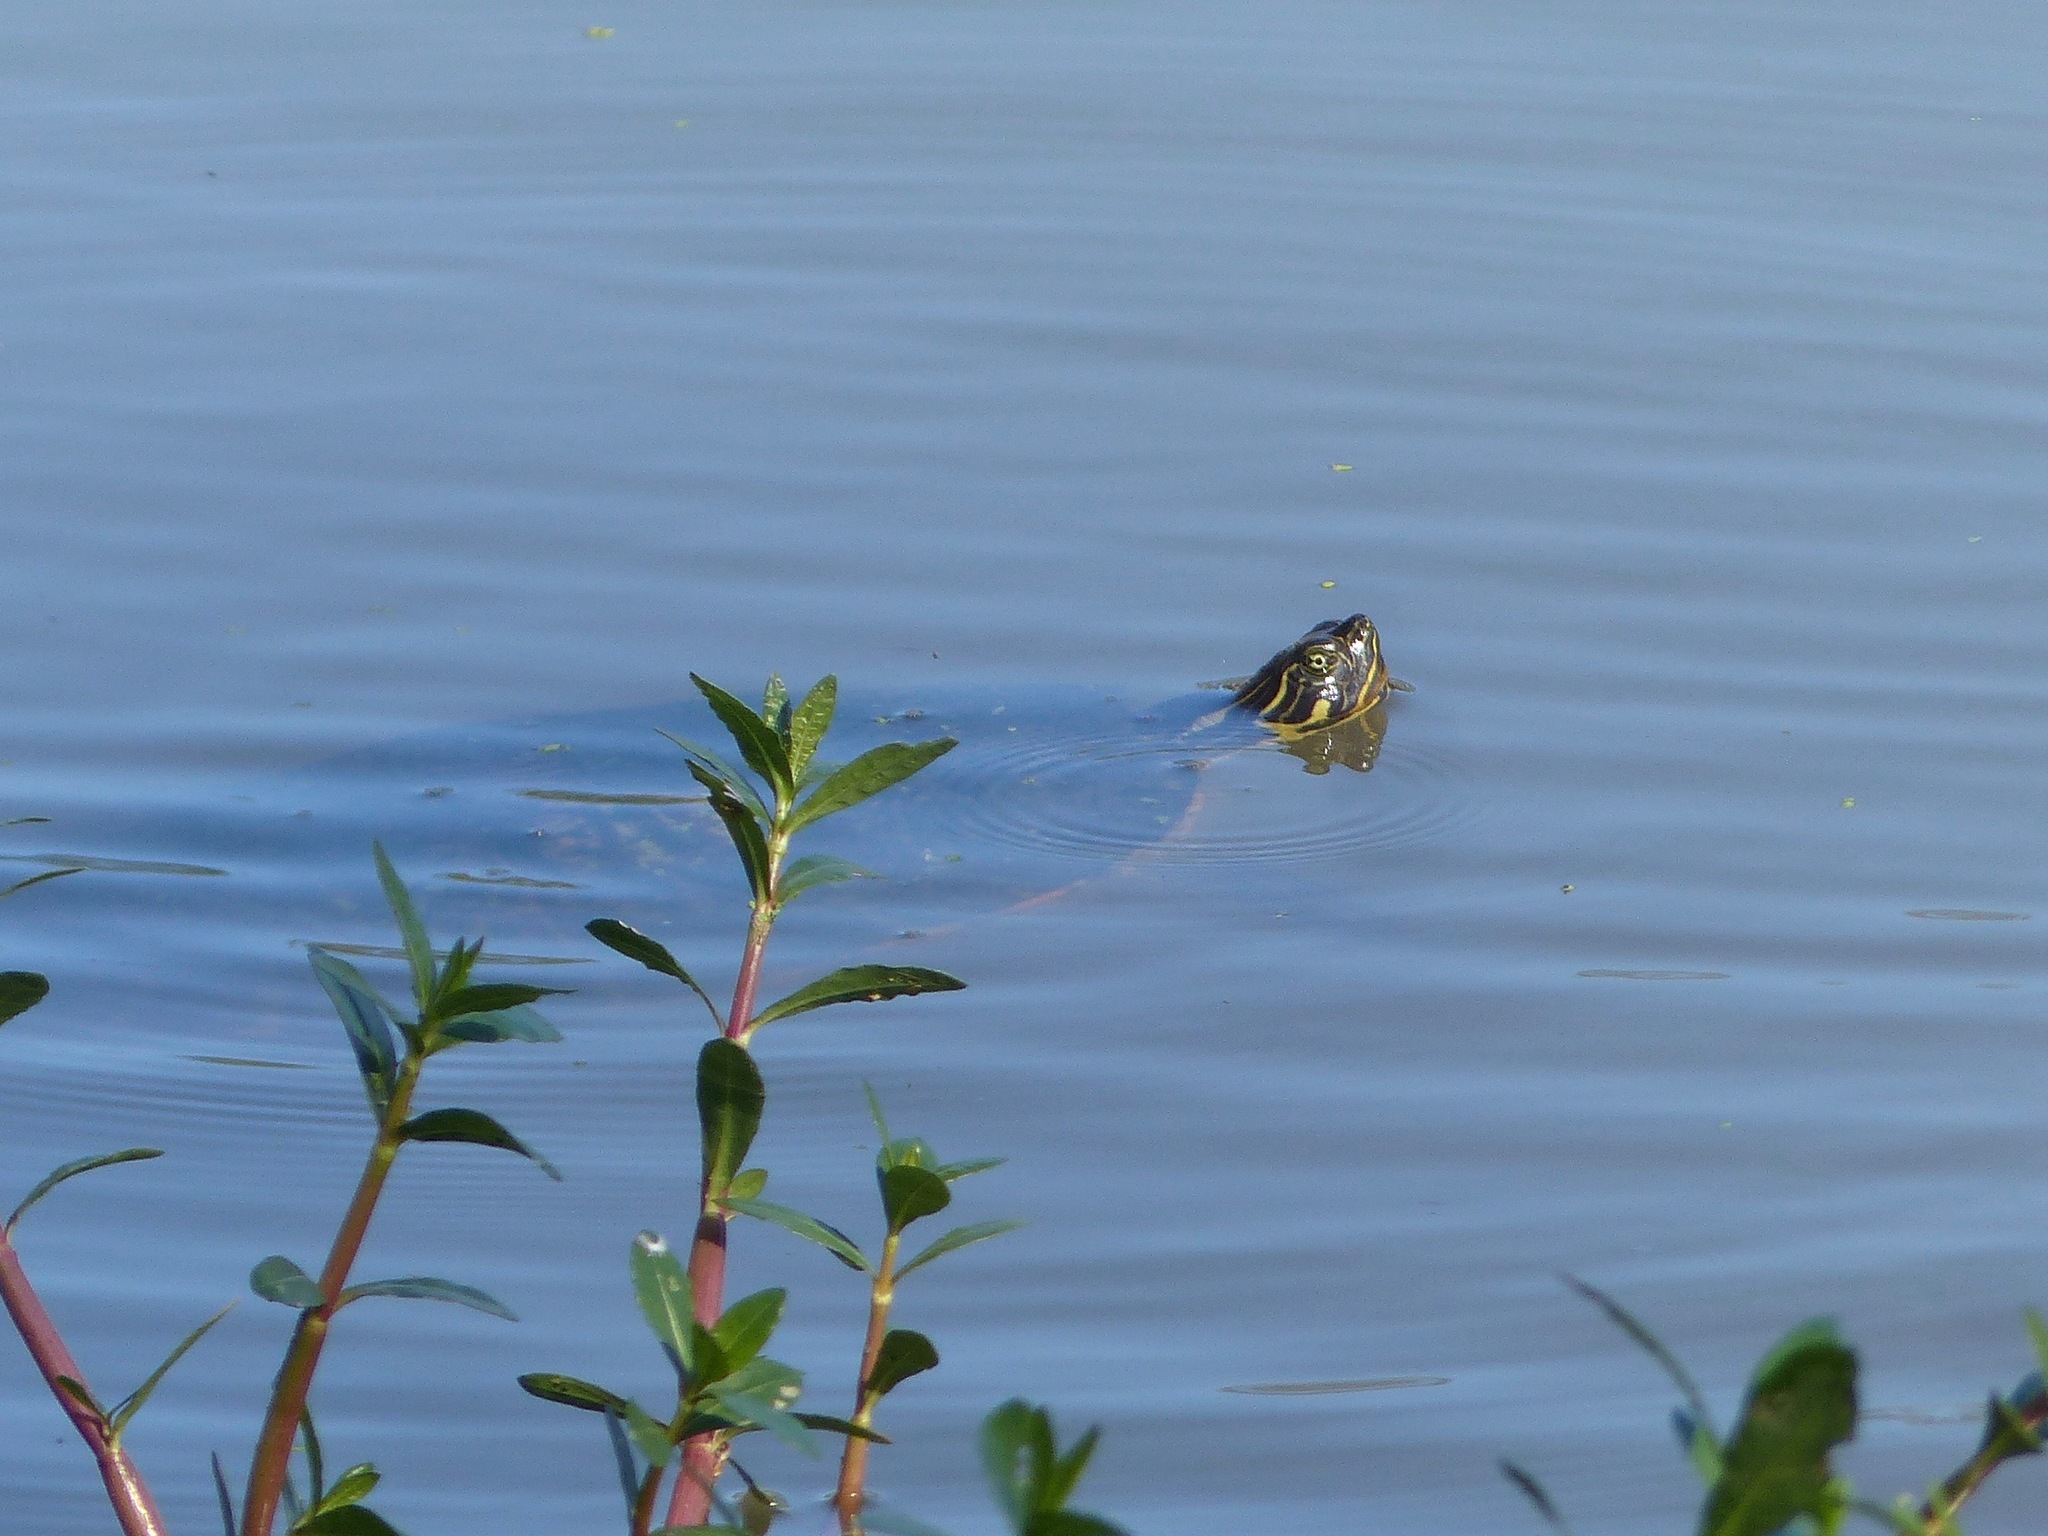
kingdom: Animalia
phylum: Chordata
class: Testudines
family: Emydidae
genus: Pseudemys
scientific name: Pseudemys concinna
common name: Eastern river cooter
